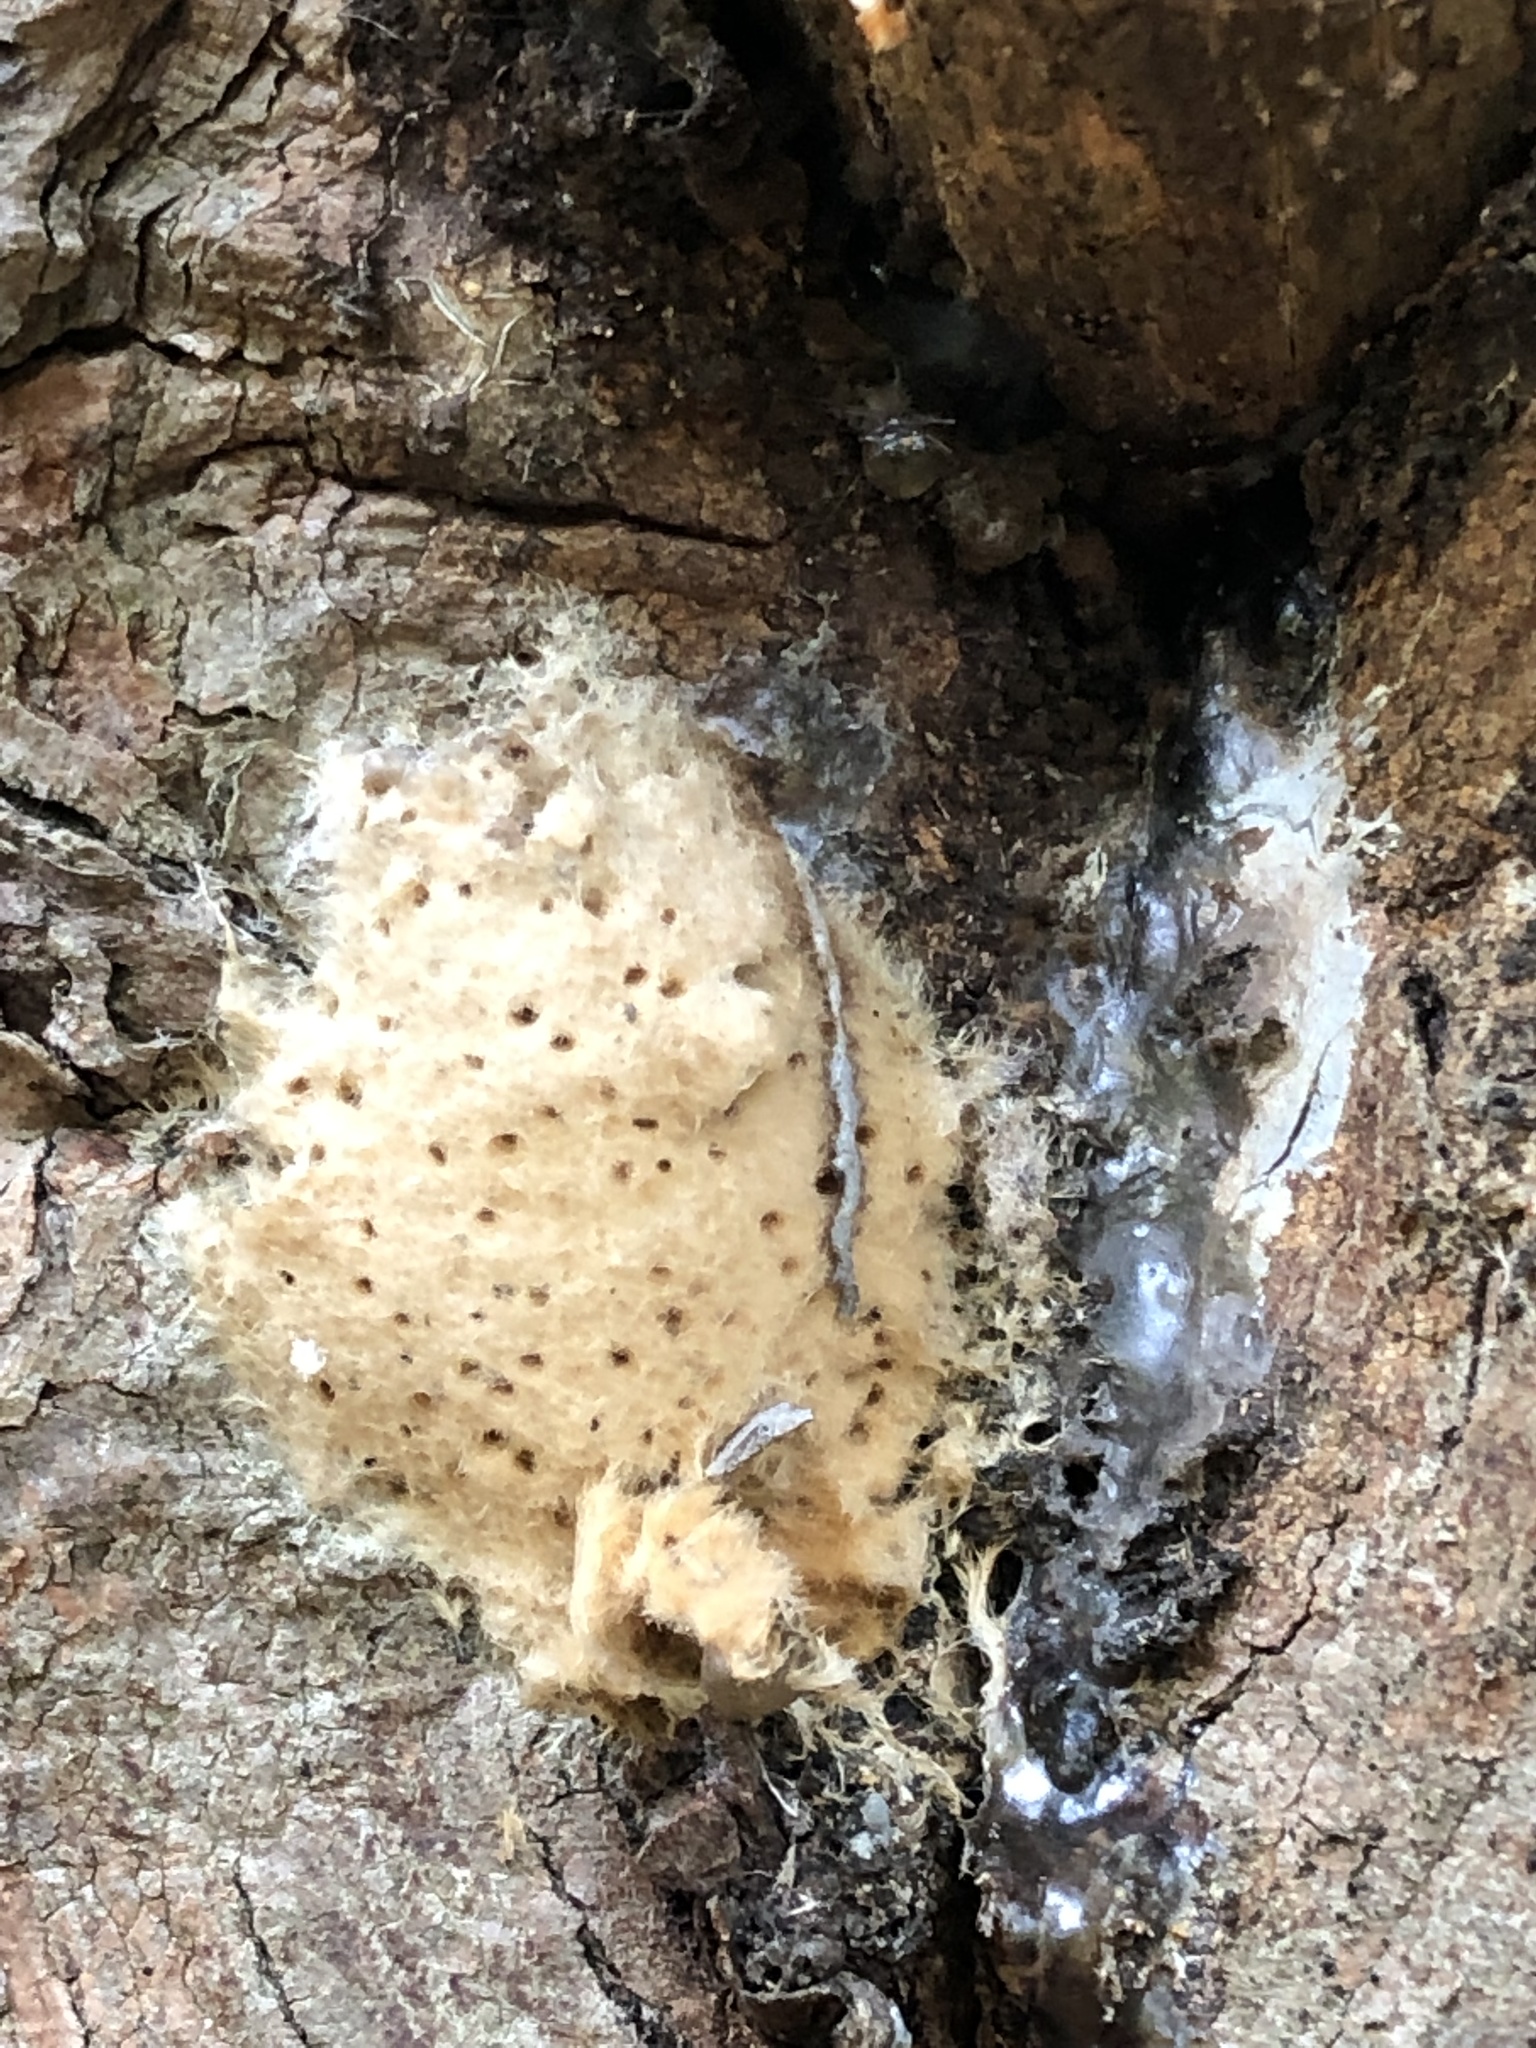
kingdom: Animalia
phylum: Arthropoda
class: Insecta
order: Lepidoptera
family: Erebidae
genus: Lymantria
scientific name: Lymantria dispar
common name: Gypsy moth
